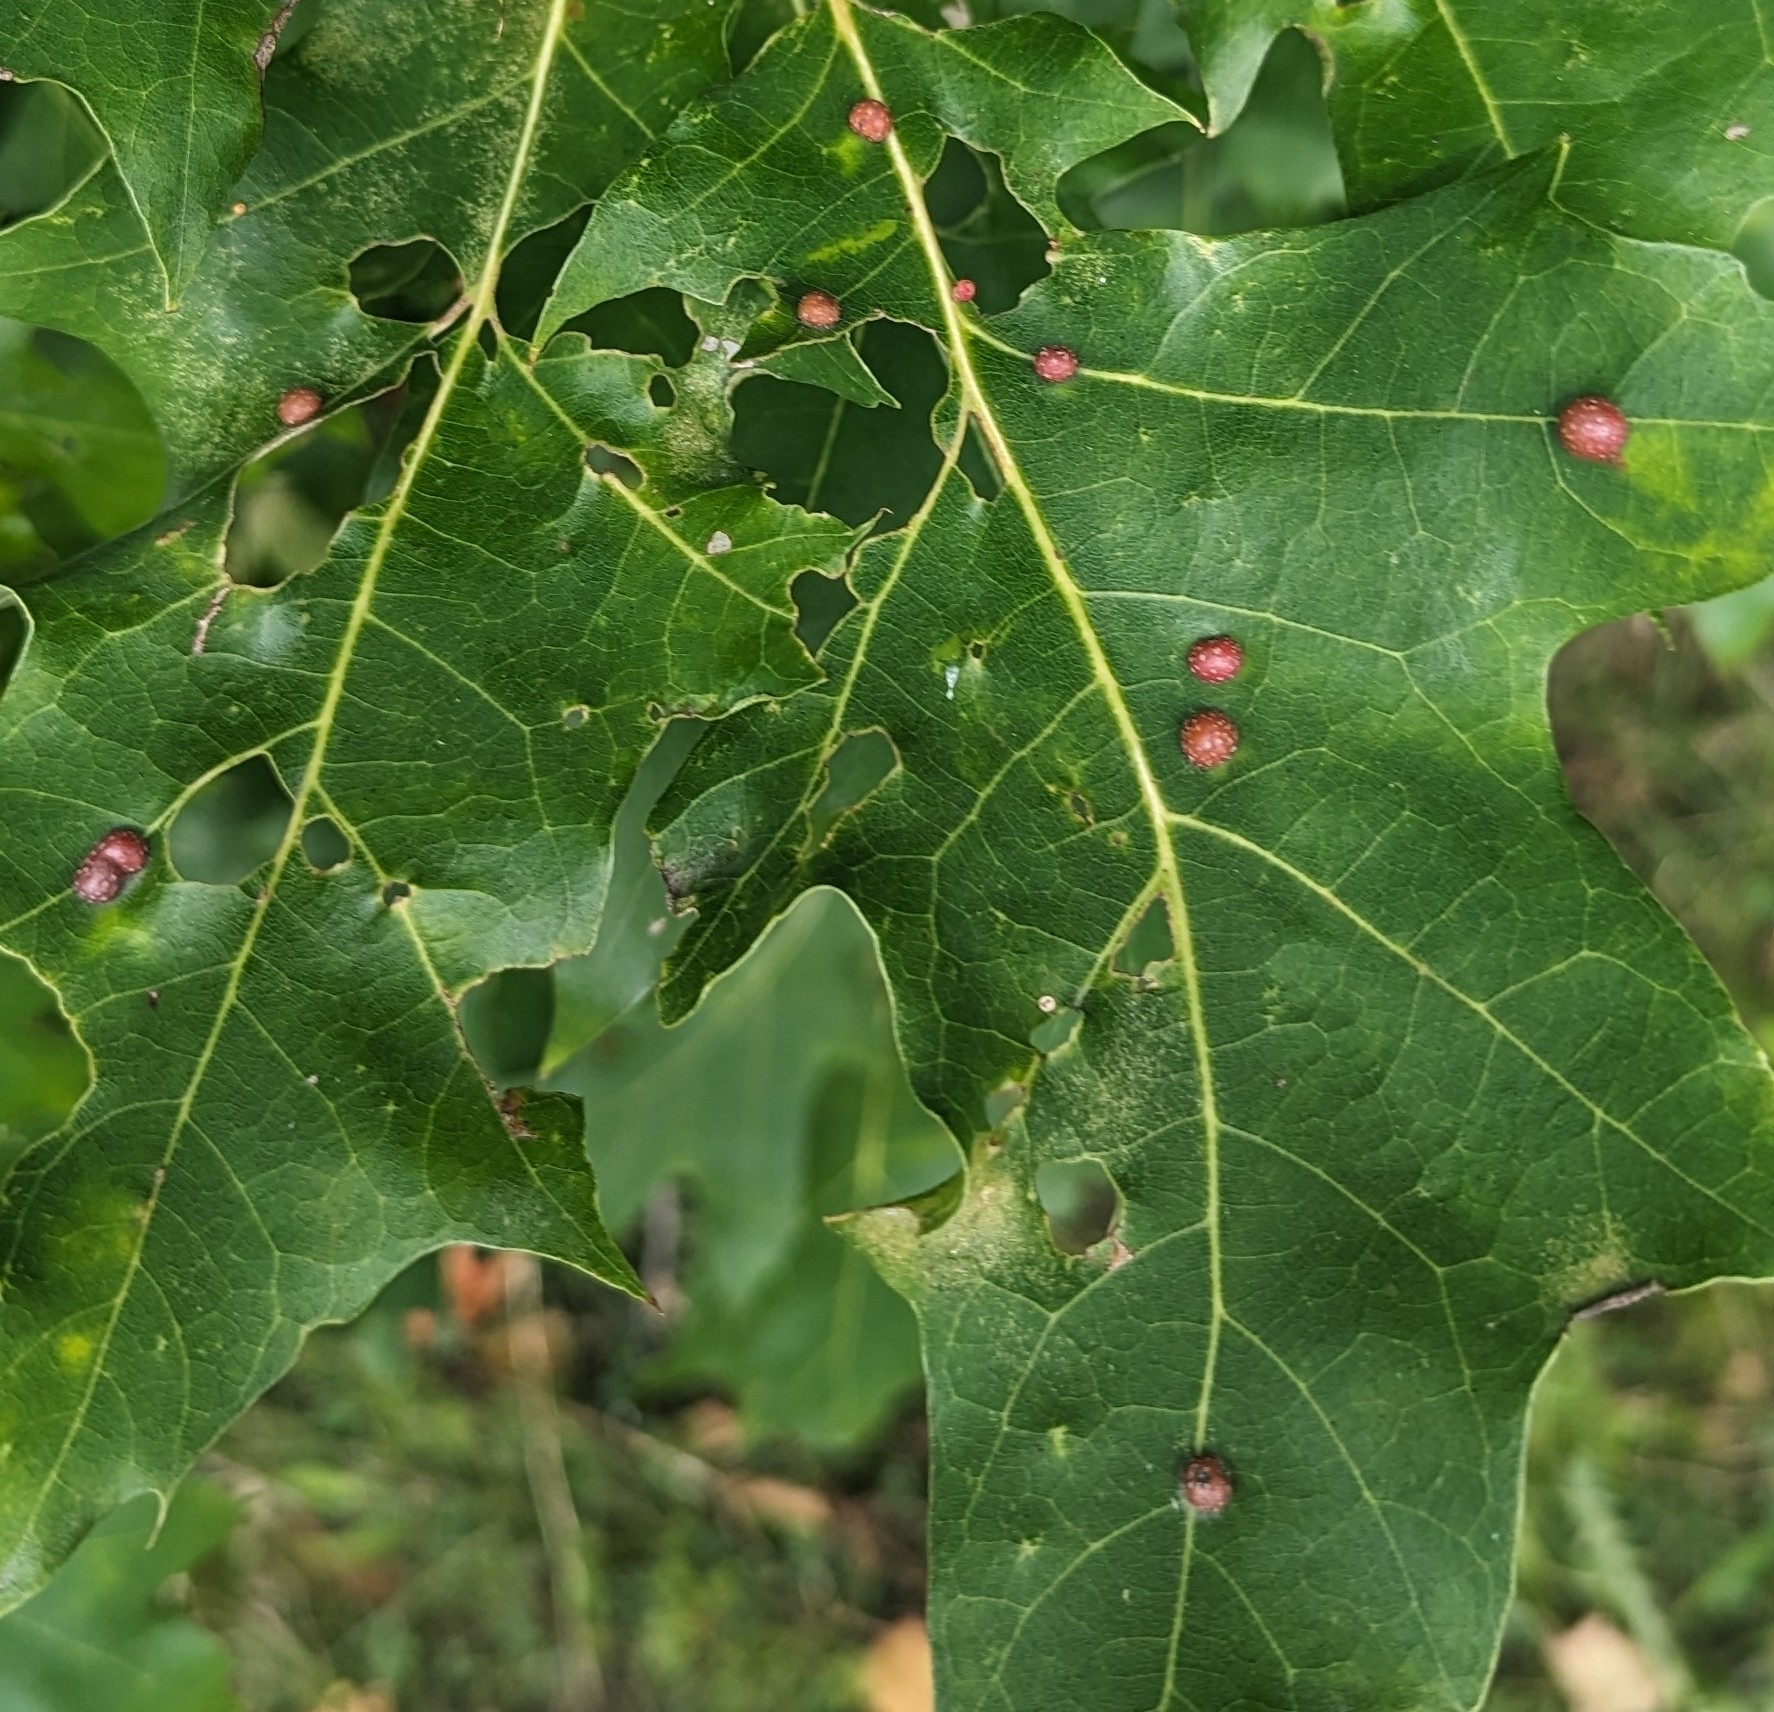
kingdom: Animalia
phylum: Arthropoda
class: Insecta
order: Diptera
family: Cecidomyiidae
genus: Polystepha
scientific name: Polystepha pilulae
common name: Oak leaf gall midge
